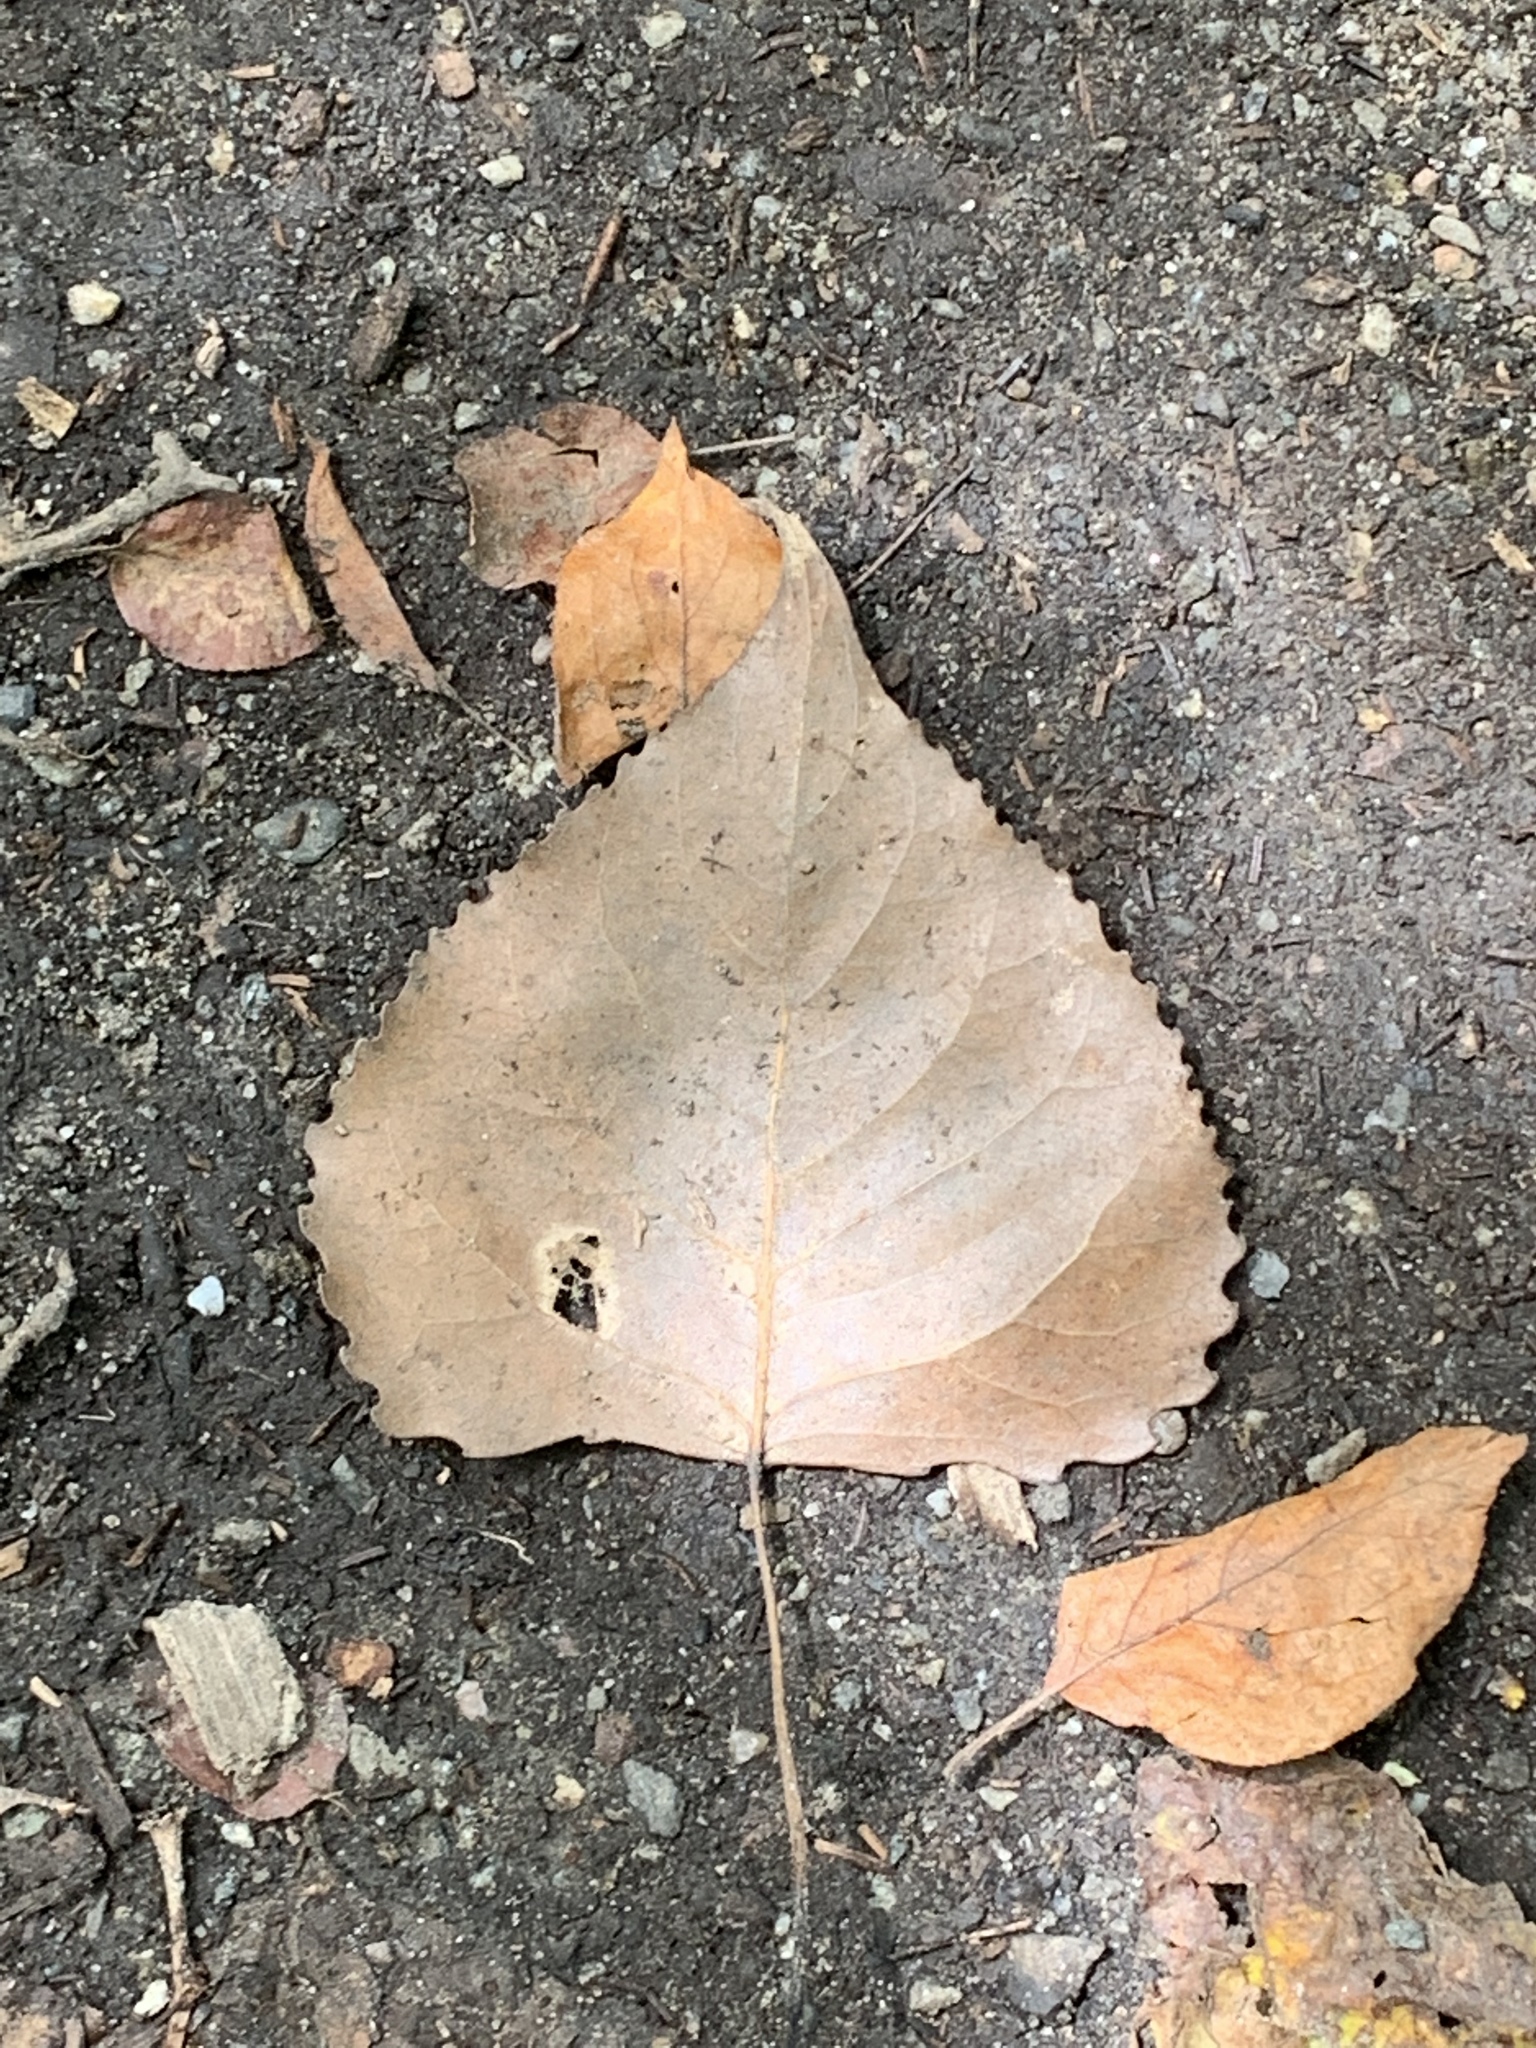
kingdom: Plantae
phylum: Tracheophyta
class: Magnoliopsida
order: Malpighiales
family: Salicaceae
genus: Populus
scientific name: Populus deltoides
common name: Eastern cottonwood
